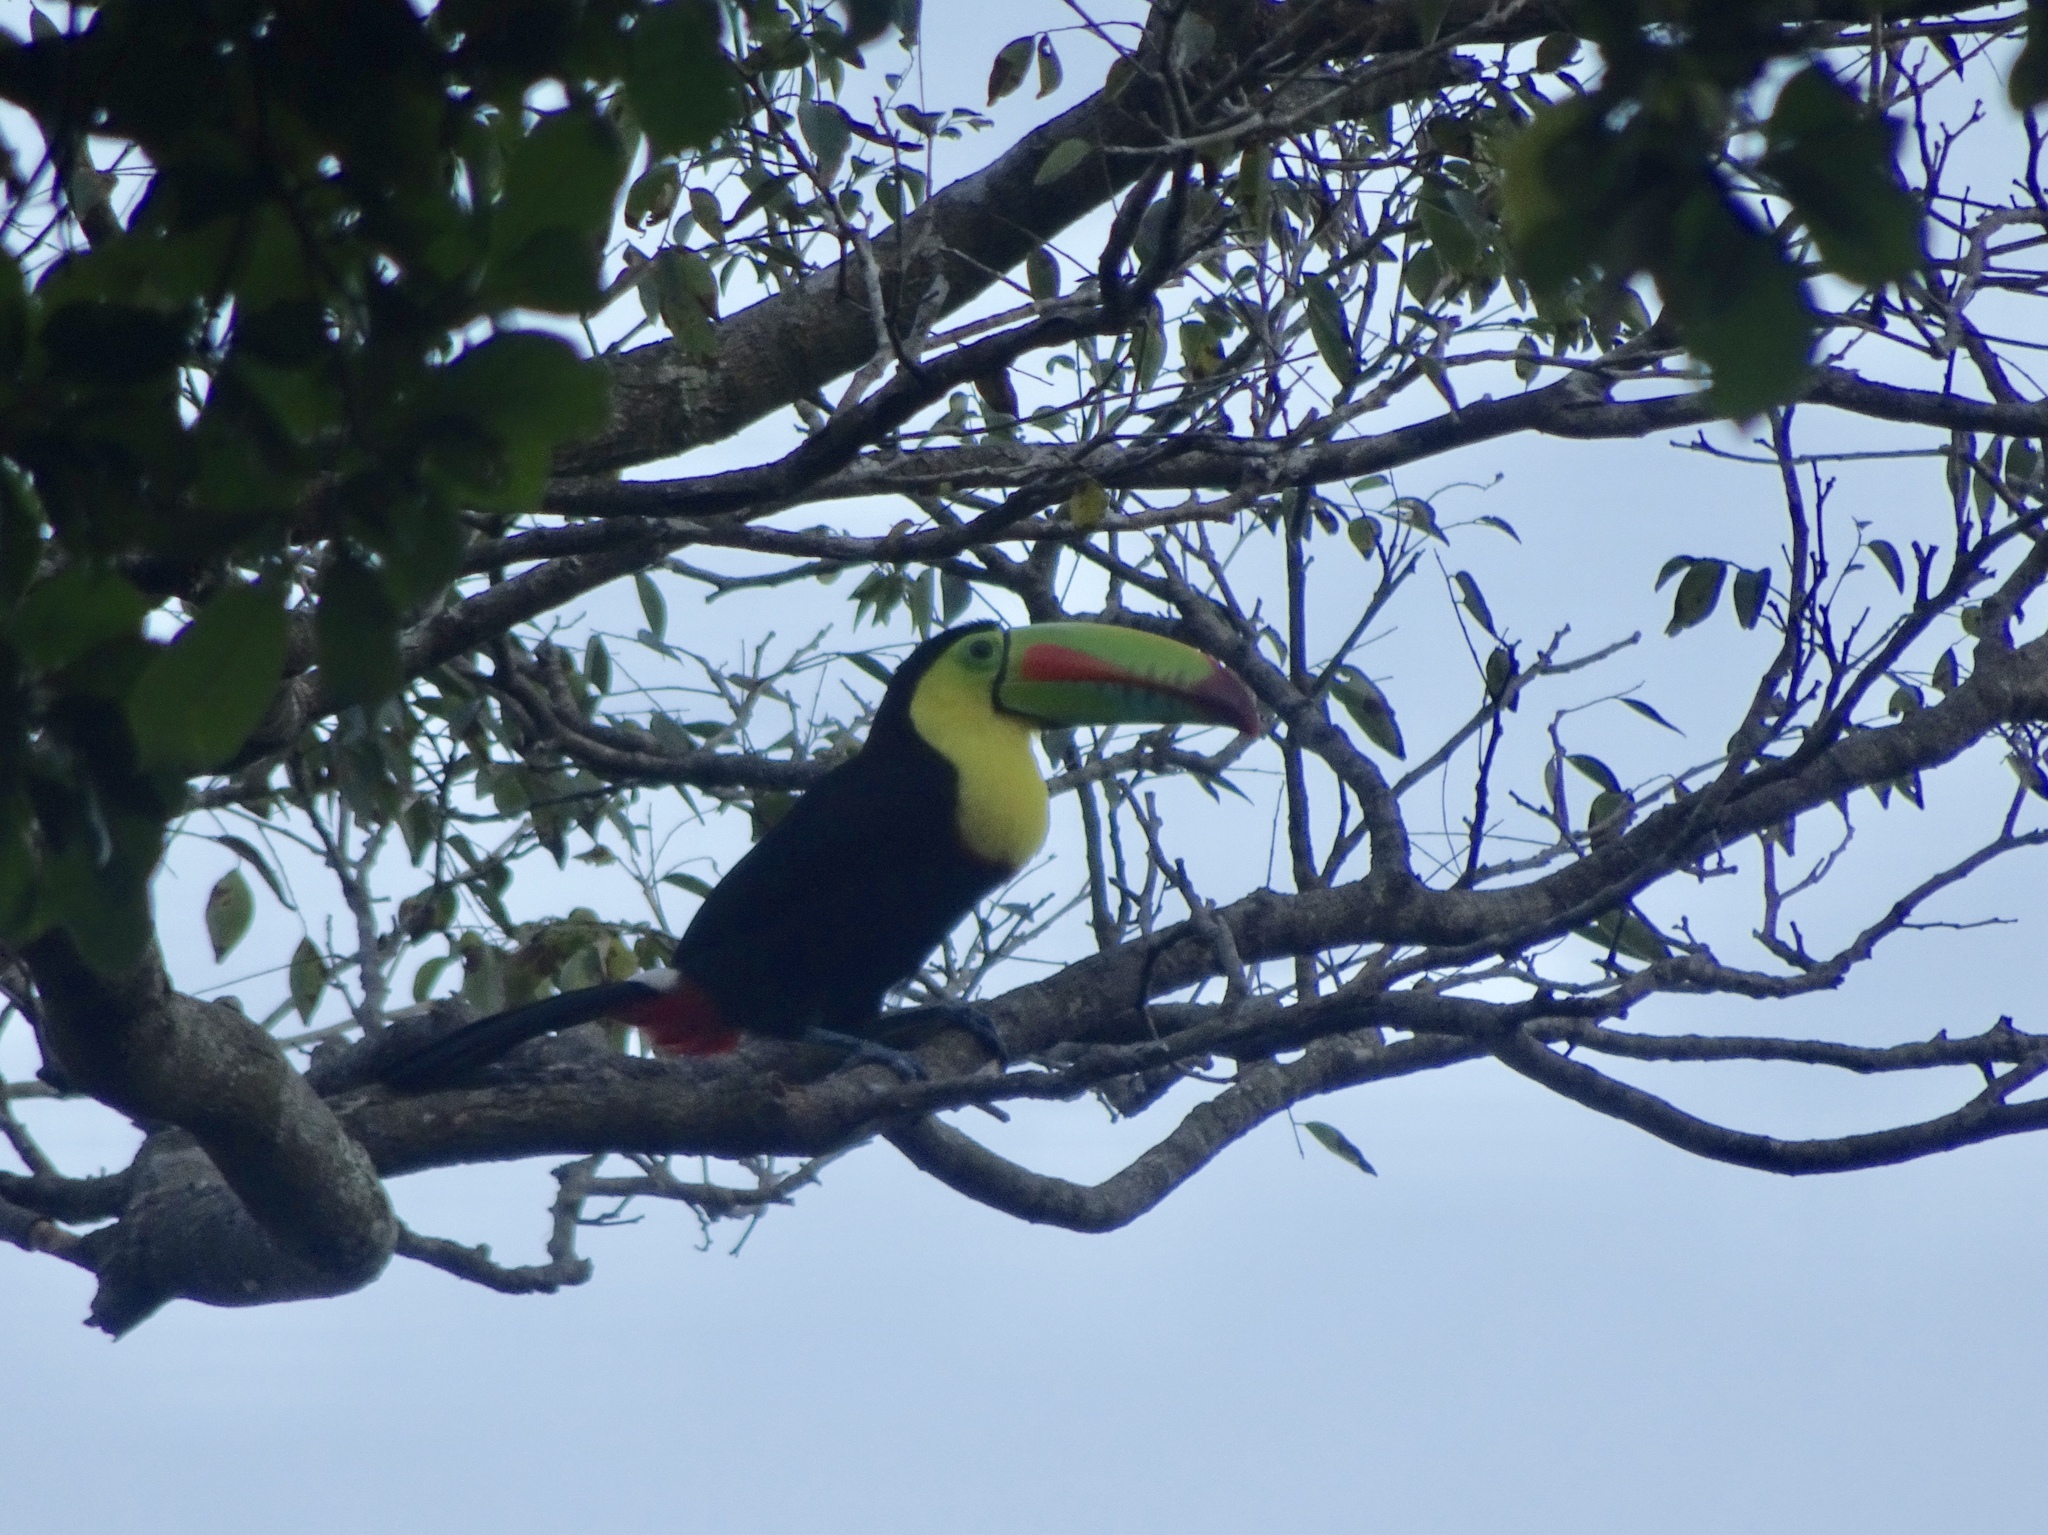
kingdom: Animalia
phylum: Chordata
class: Aves
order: Piciformes
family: Ramphastidae
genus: Ramphastos
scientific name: Ramphastos sulfuratus
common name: Keel-billed toucan
